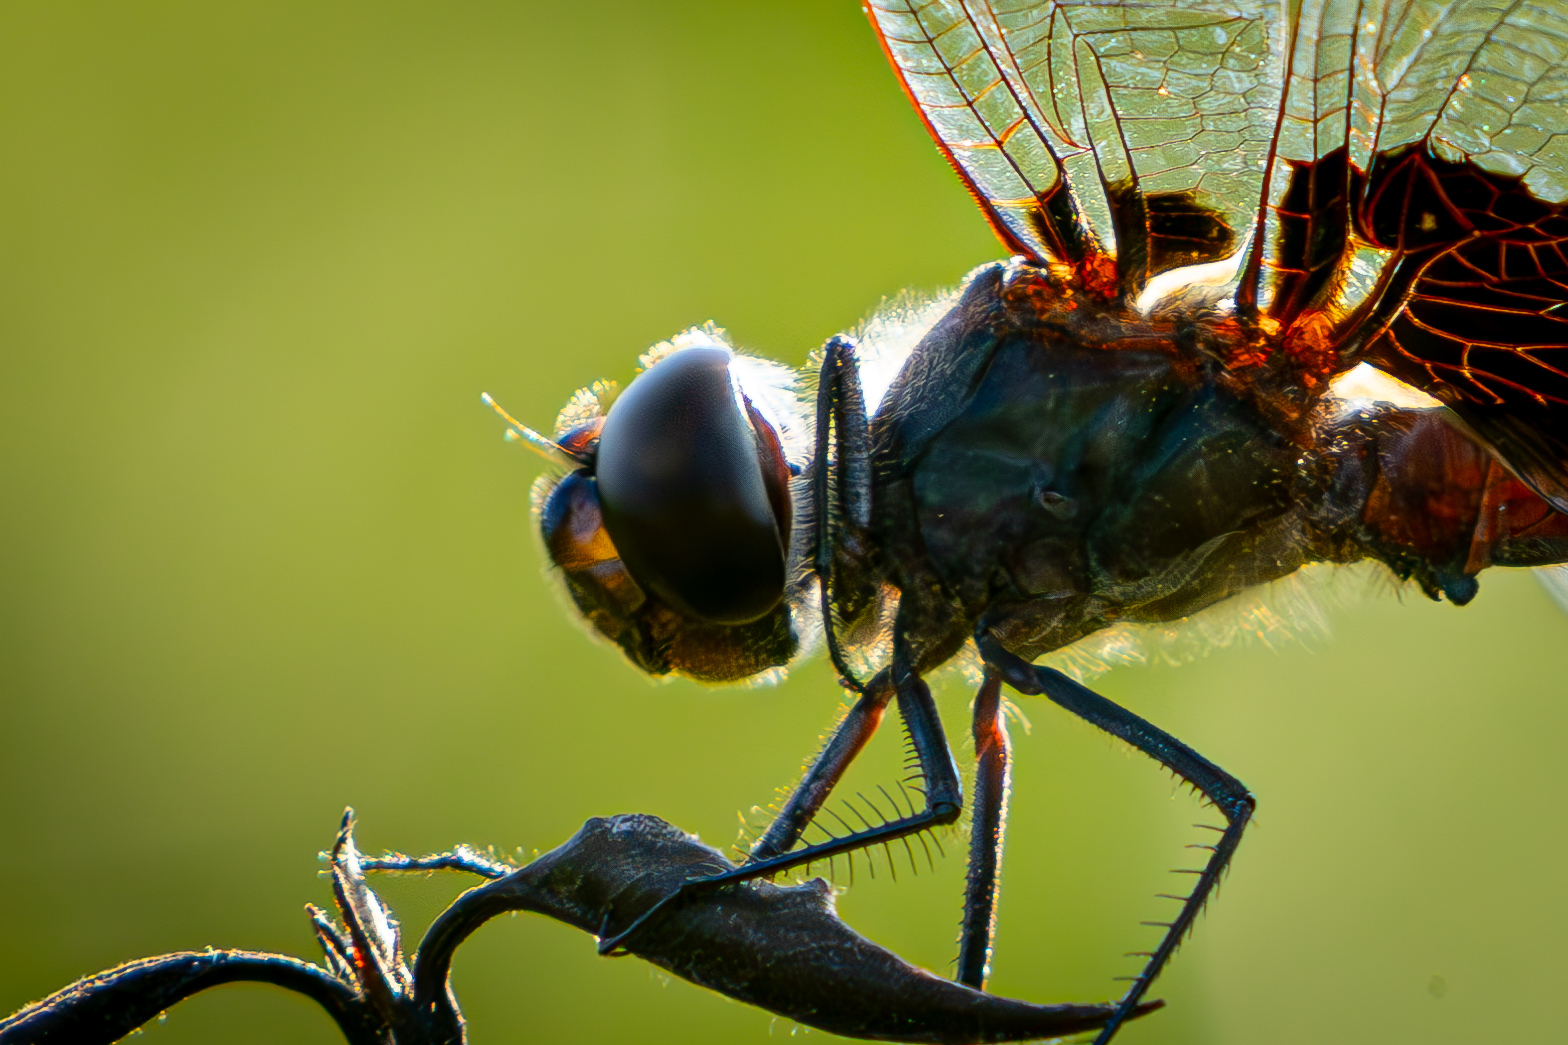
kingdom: Animalia
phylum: Arthropoda
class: Insecta
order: Odonata
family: Libellulidae
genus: Tramea
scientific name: Tramea lacerata
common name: Black saddlebags
